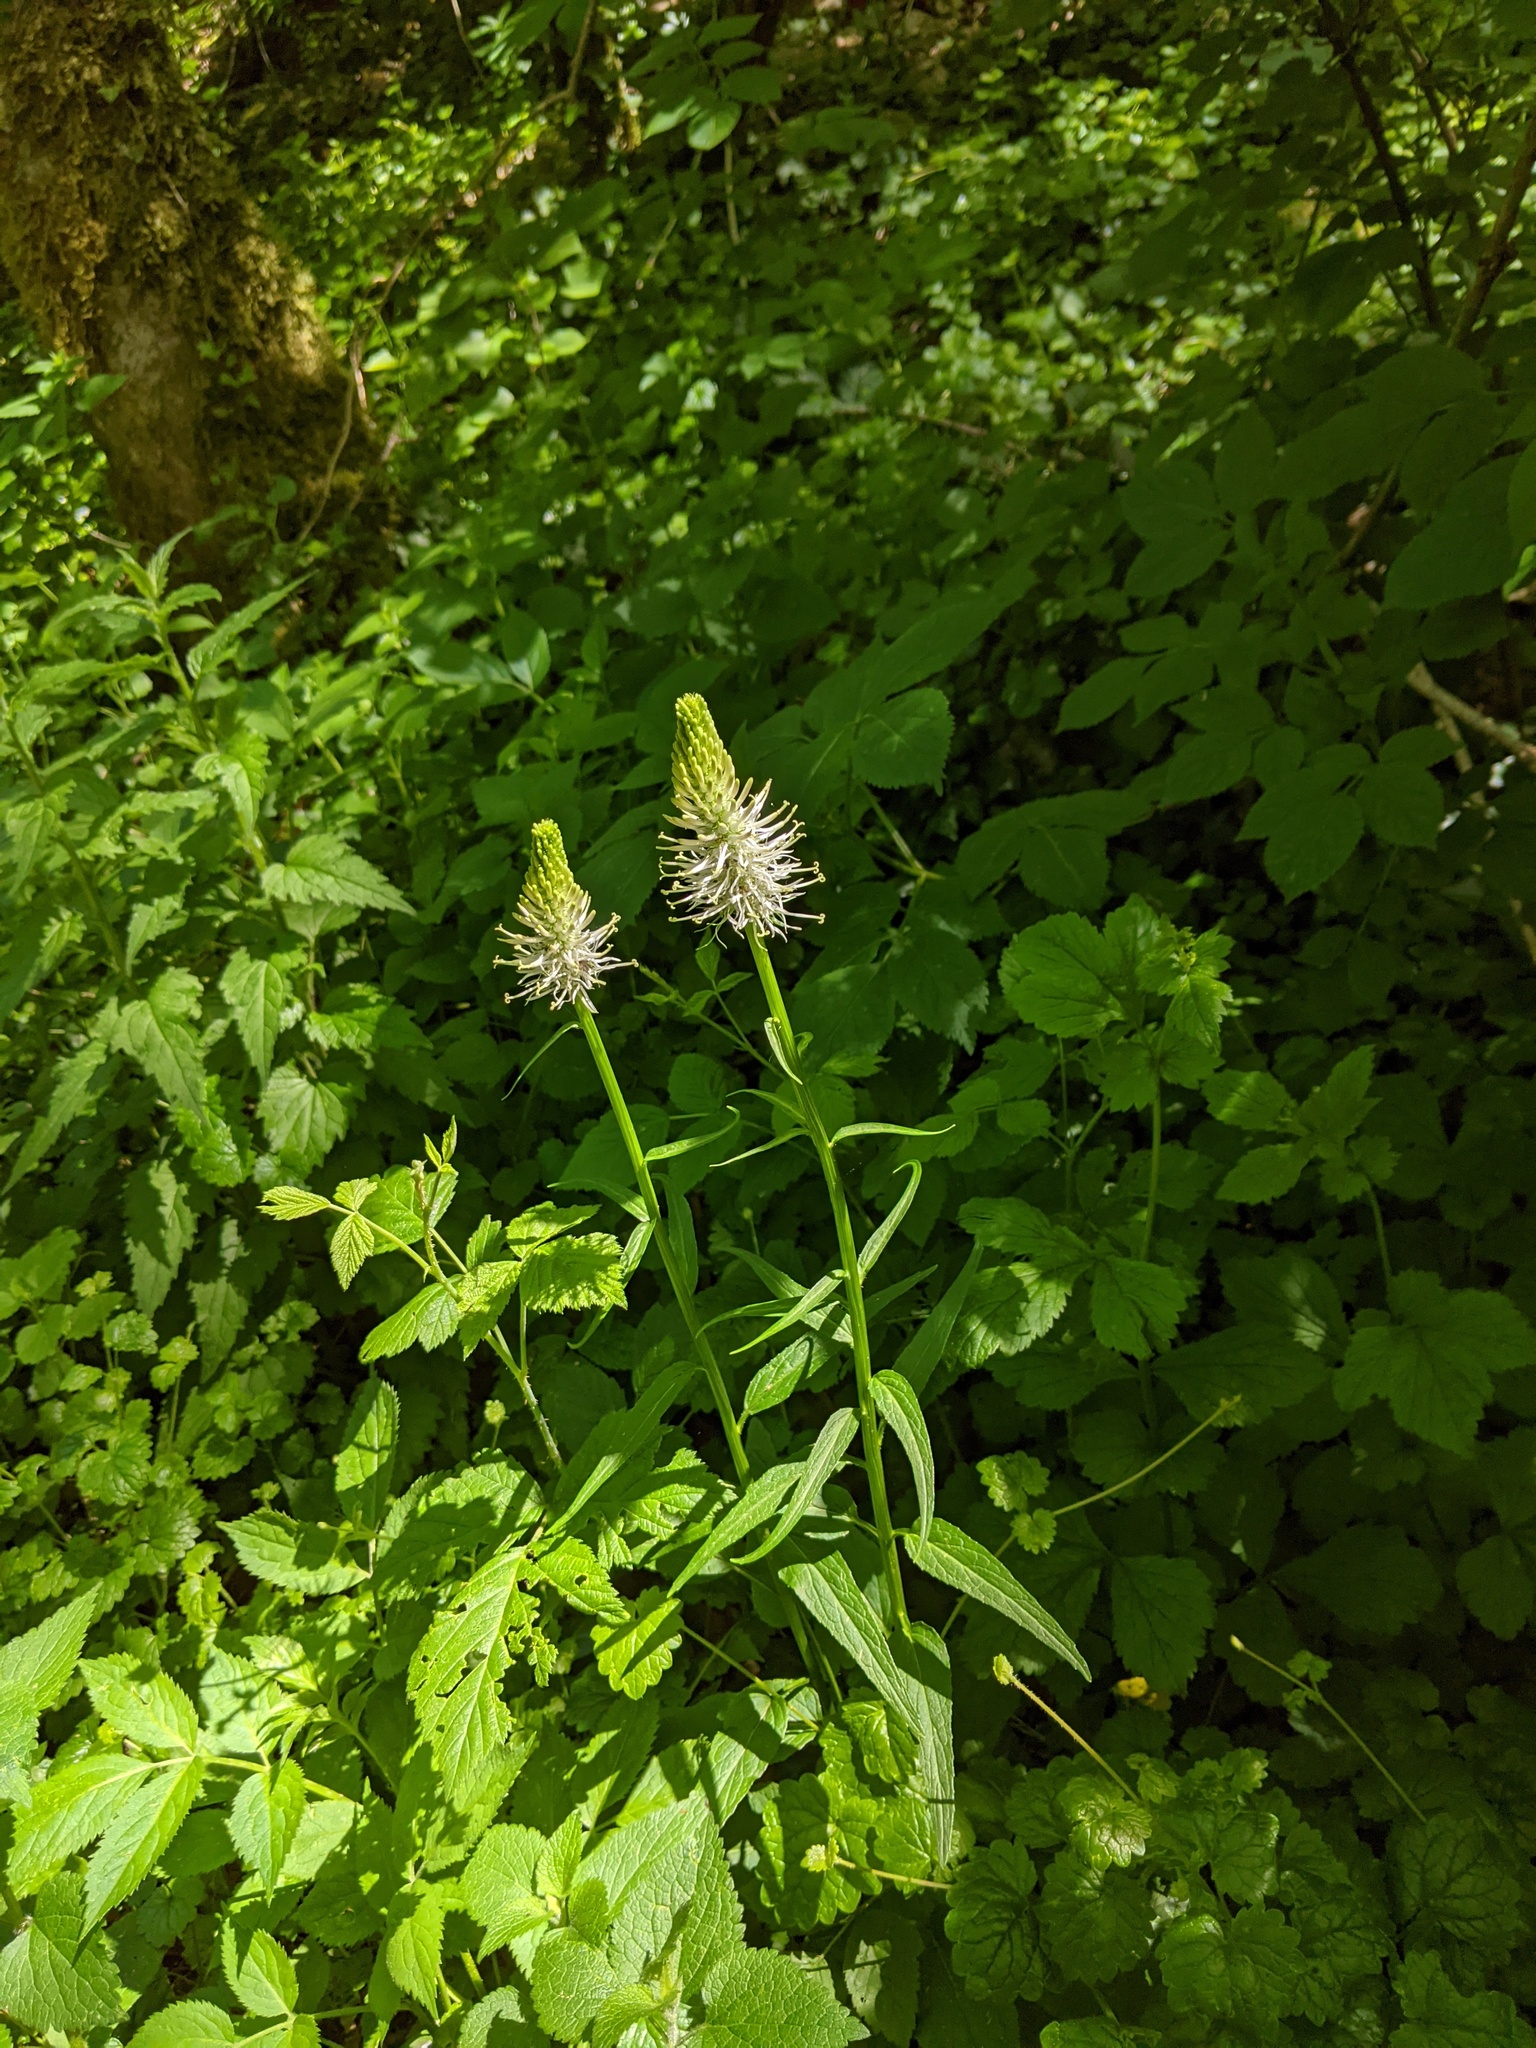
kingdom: Plantae
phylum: Tracheophyta
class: Magnoliopsida
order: Asterales
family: Campanulaceae
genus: Phyteuma
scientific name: Phyteuma spicatum
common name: Spiked rampion
